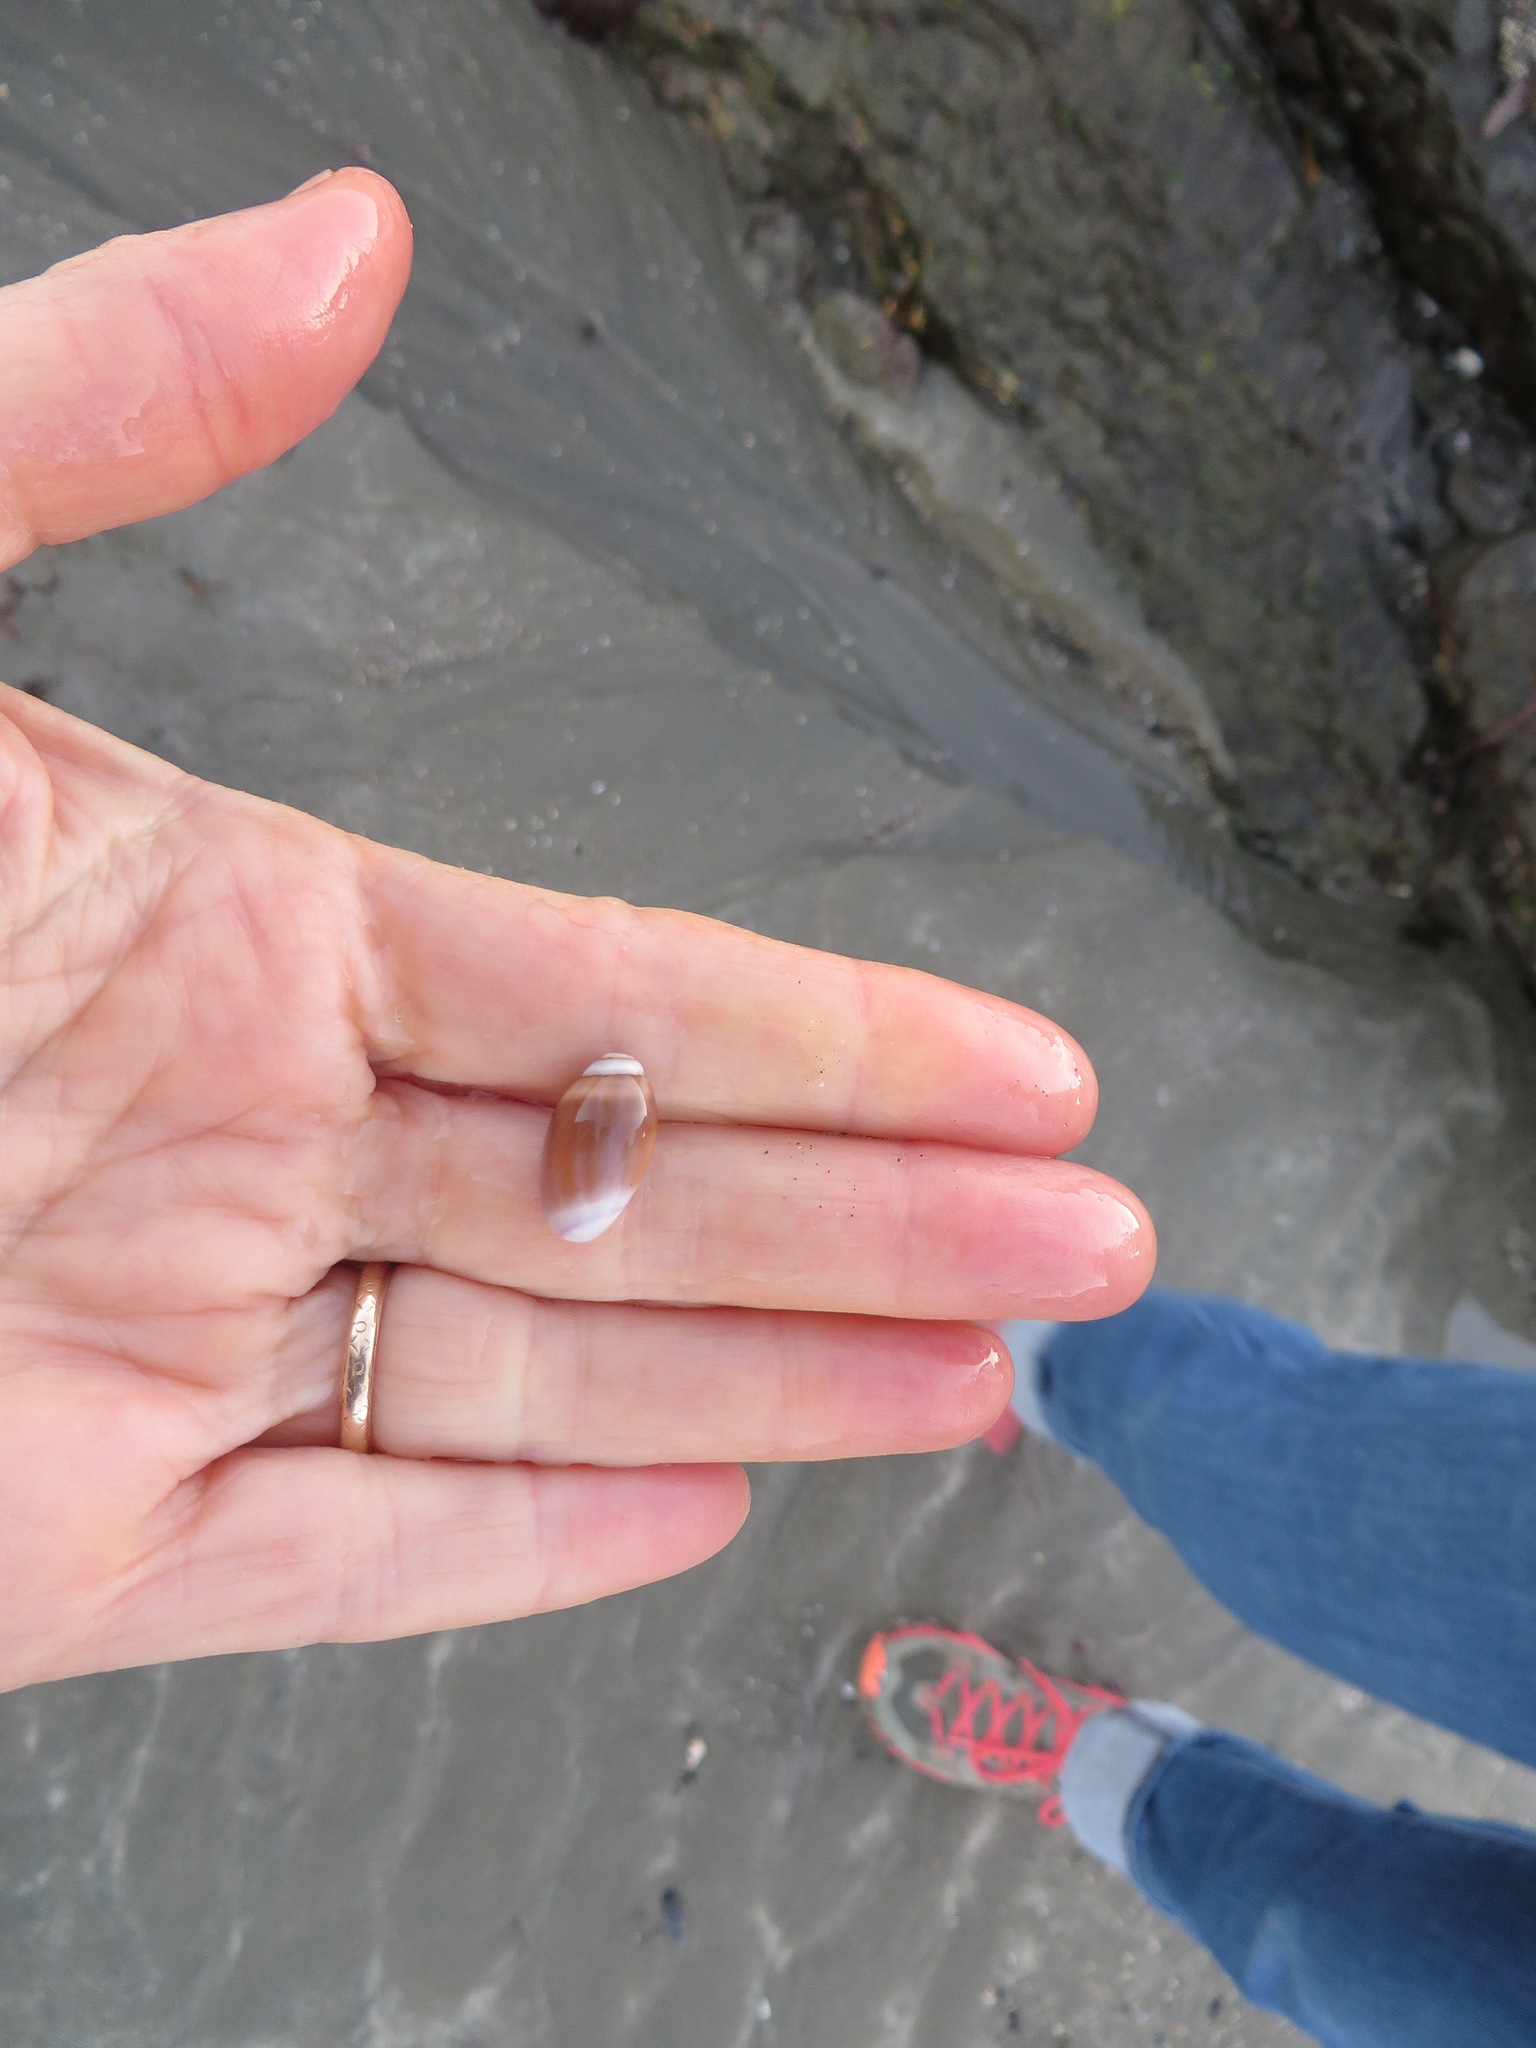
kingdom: Animalia
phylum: Mollusca
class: Gastropoda
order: Neogastropoda
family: Olividae
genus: Callianax
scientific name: Callianax biplicata
